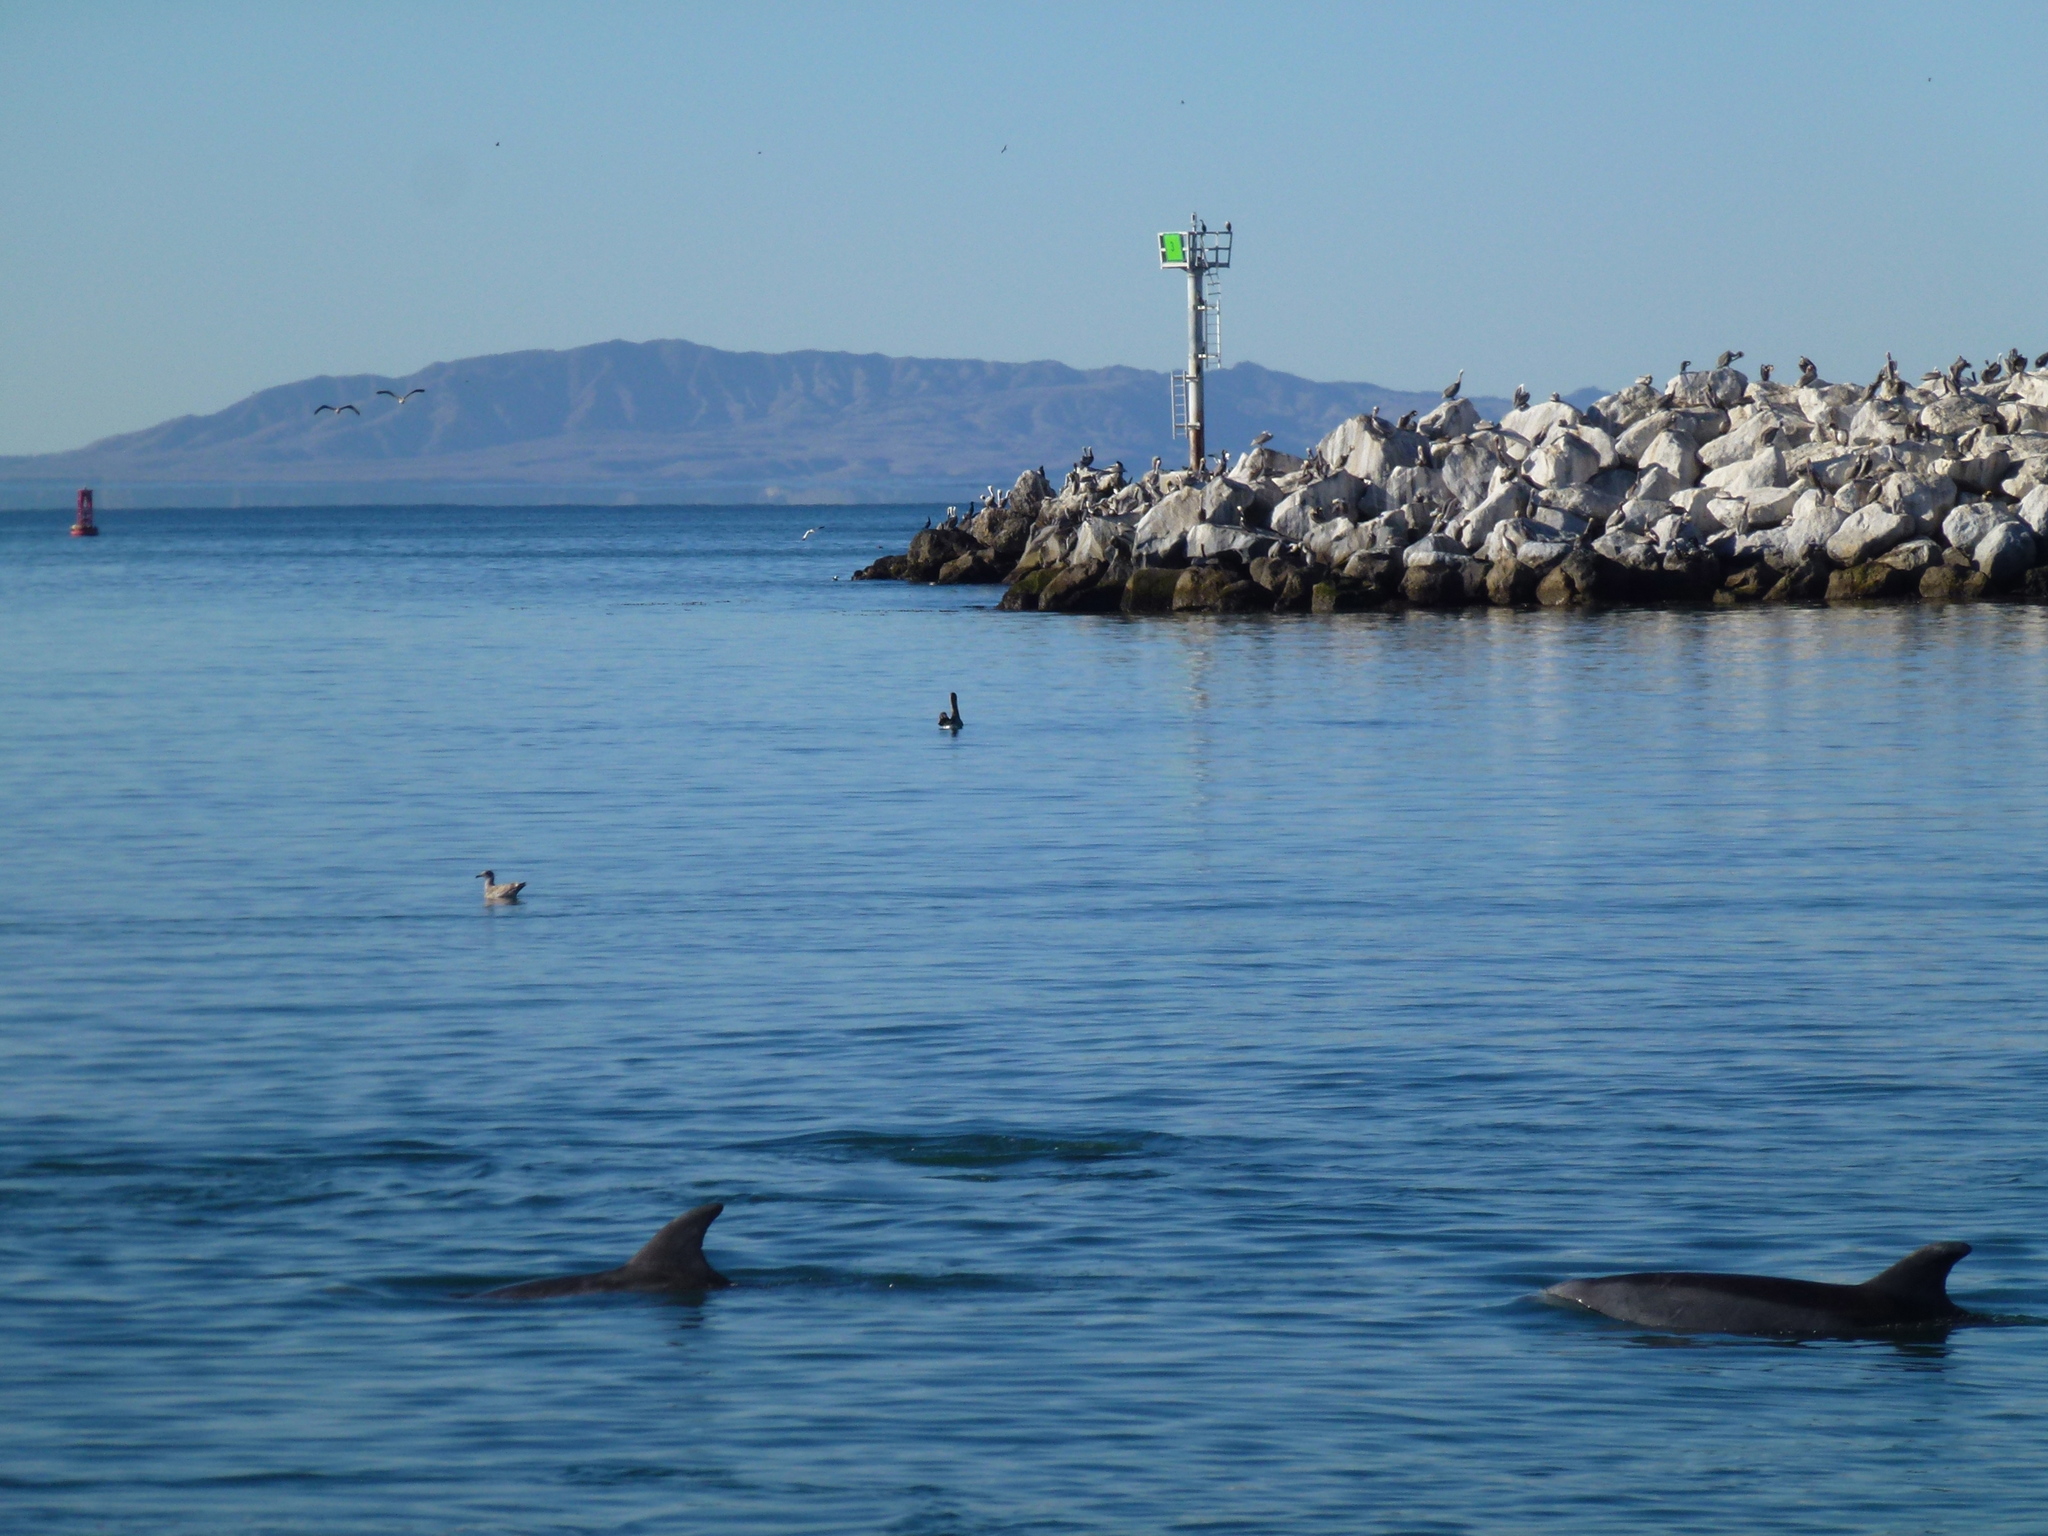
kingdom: Animalia
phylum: Chordata
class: Mammalia
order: Cetacea
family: Delphinidae
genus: Tursiops
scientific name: Tursiops truncatus
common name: Bottlenose dolphin
